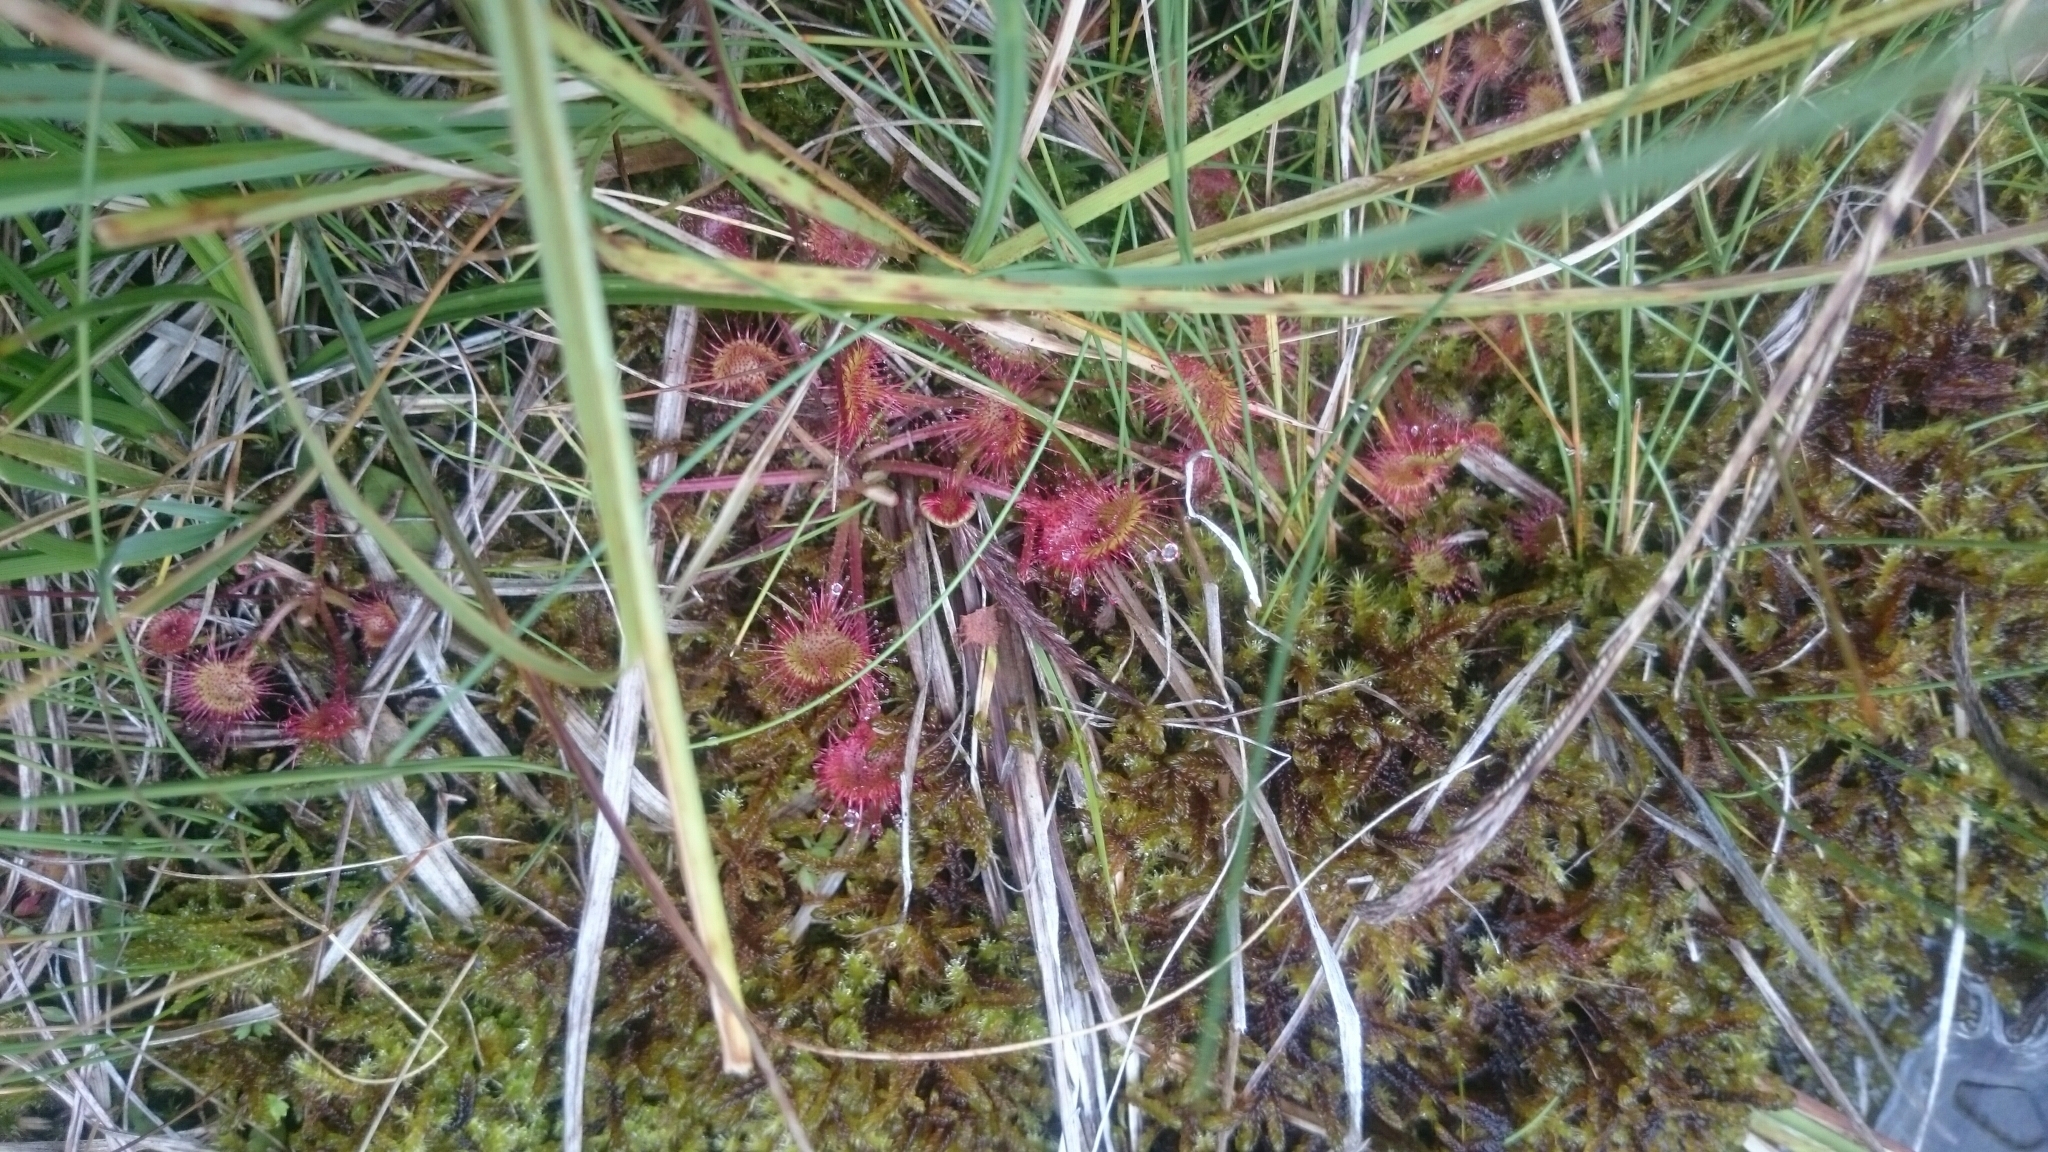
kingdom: Plantae
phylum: Tracheophyta
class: Magnoliopsida
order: Caryophyllales
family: Droseraceae
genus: Drosera
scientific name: Drosera rotundifolia
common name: Round-leaved sundew
